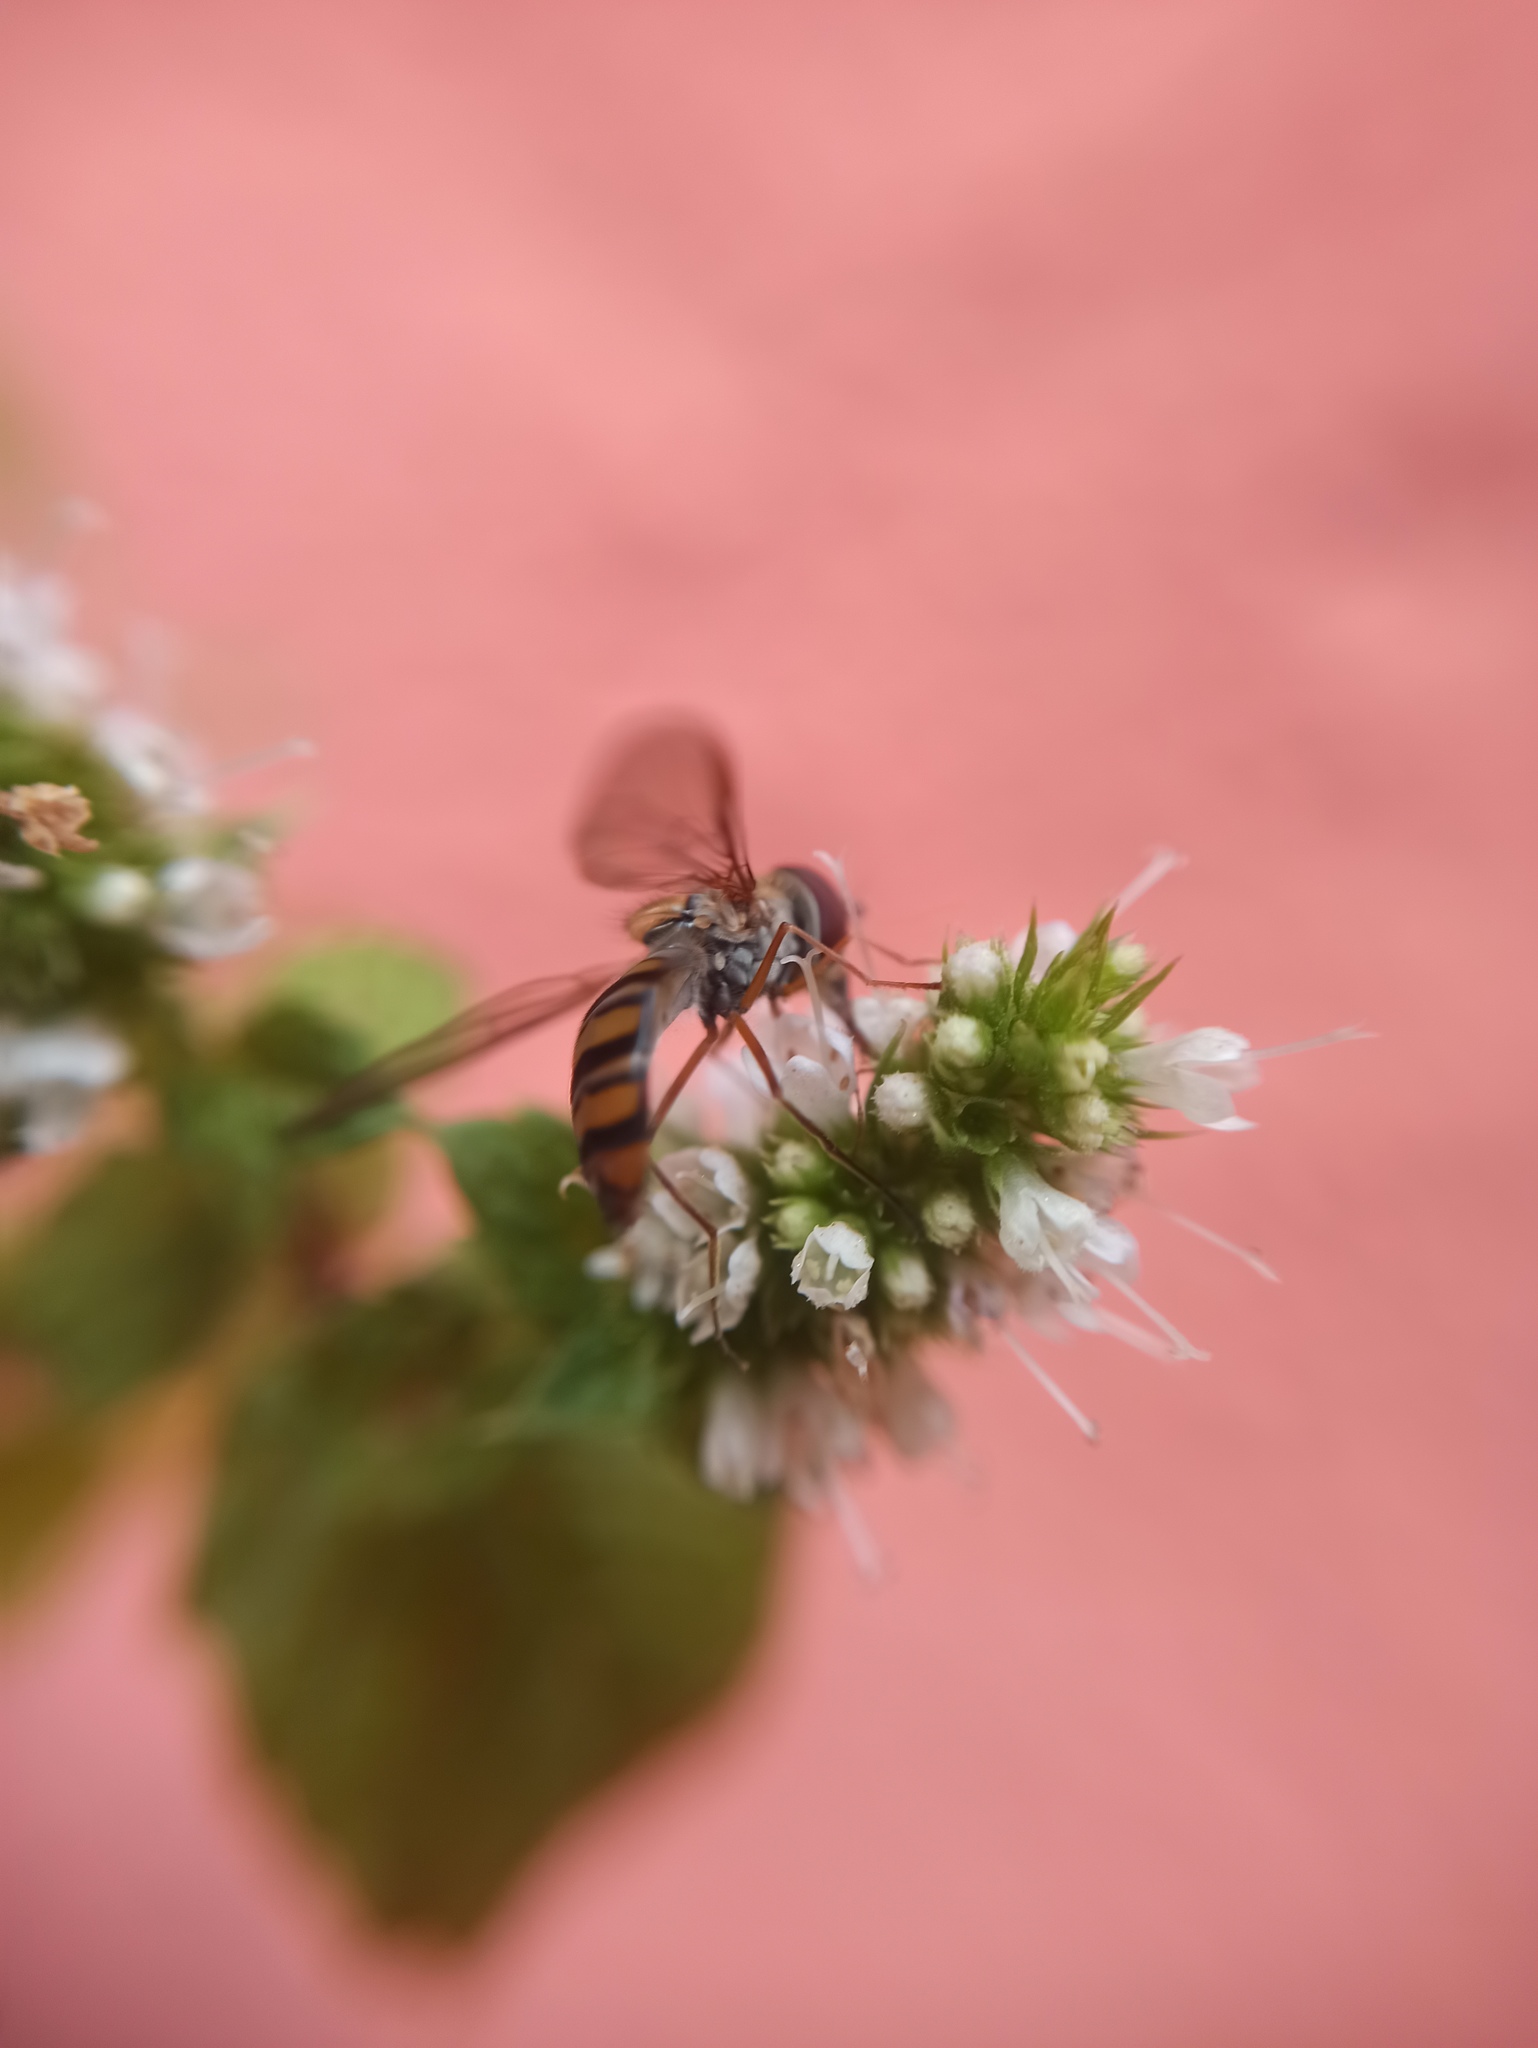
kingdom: Animalia
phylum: Arthropoda
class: Insecta
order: Diptera
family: Syrphidae
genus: Episyrphus
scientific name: Episyrphus balteatus
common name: Marmalade hoverfly
